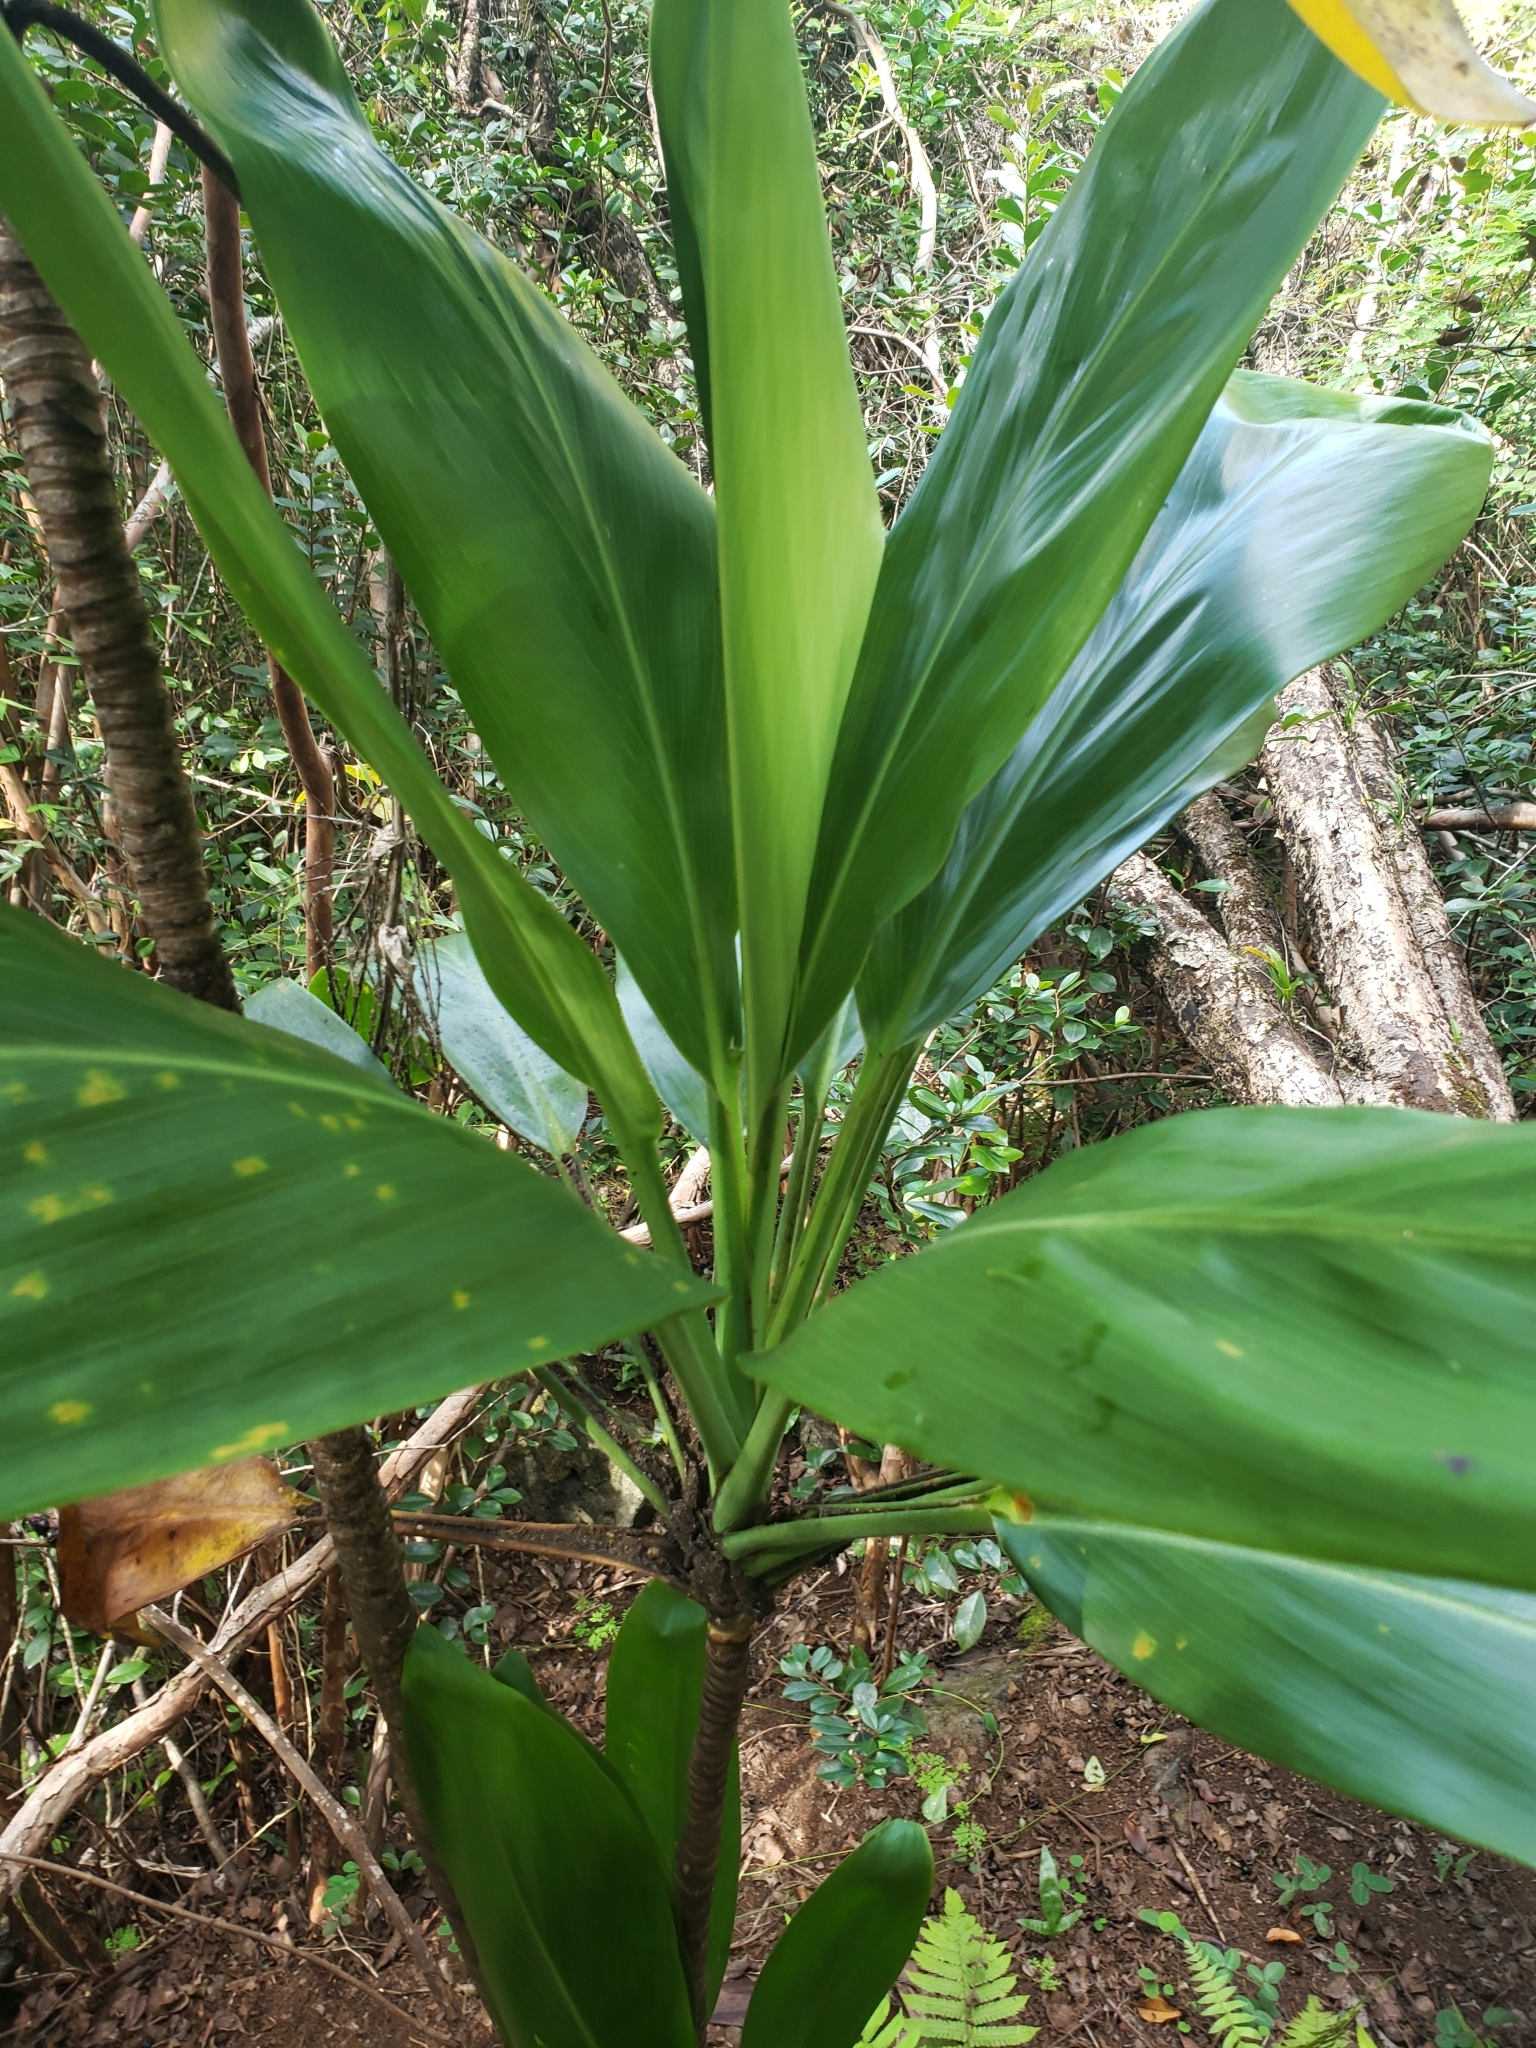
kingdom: Plantae
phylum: Tracheophyta
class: Liliopsida
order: Asparagales
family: Asparagaceae
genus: Cordyline
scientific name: Cordyline fruticosa
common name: Good-luck-plant
